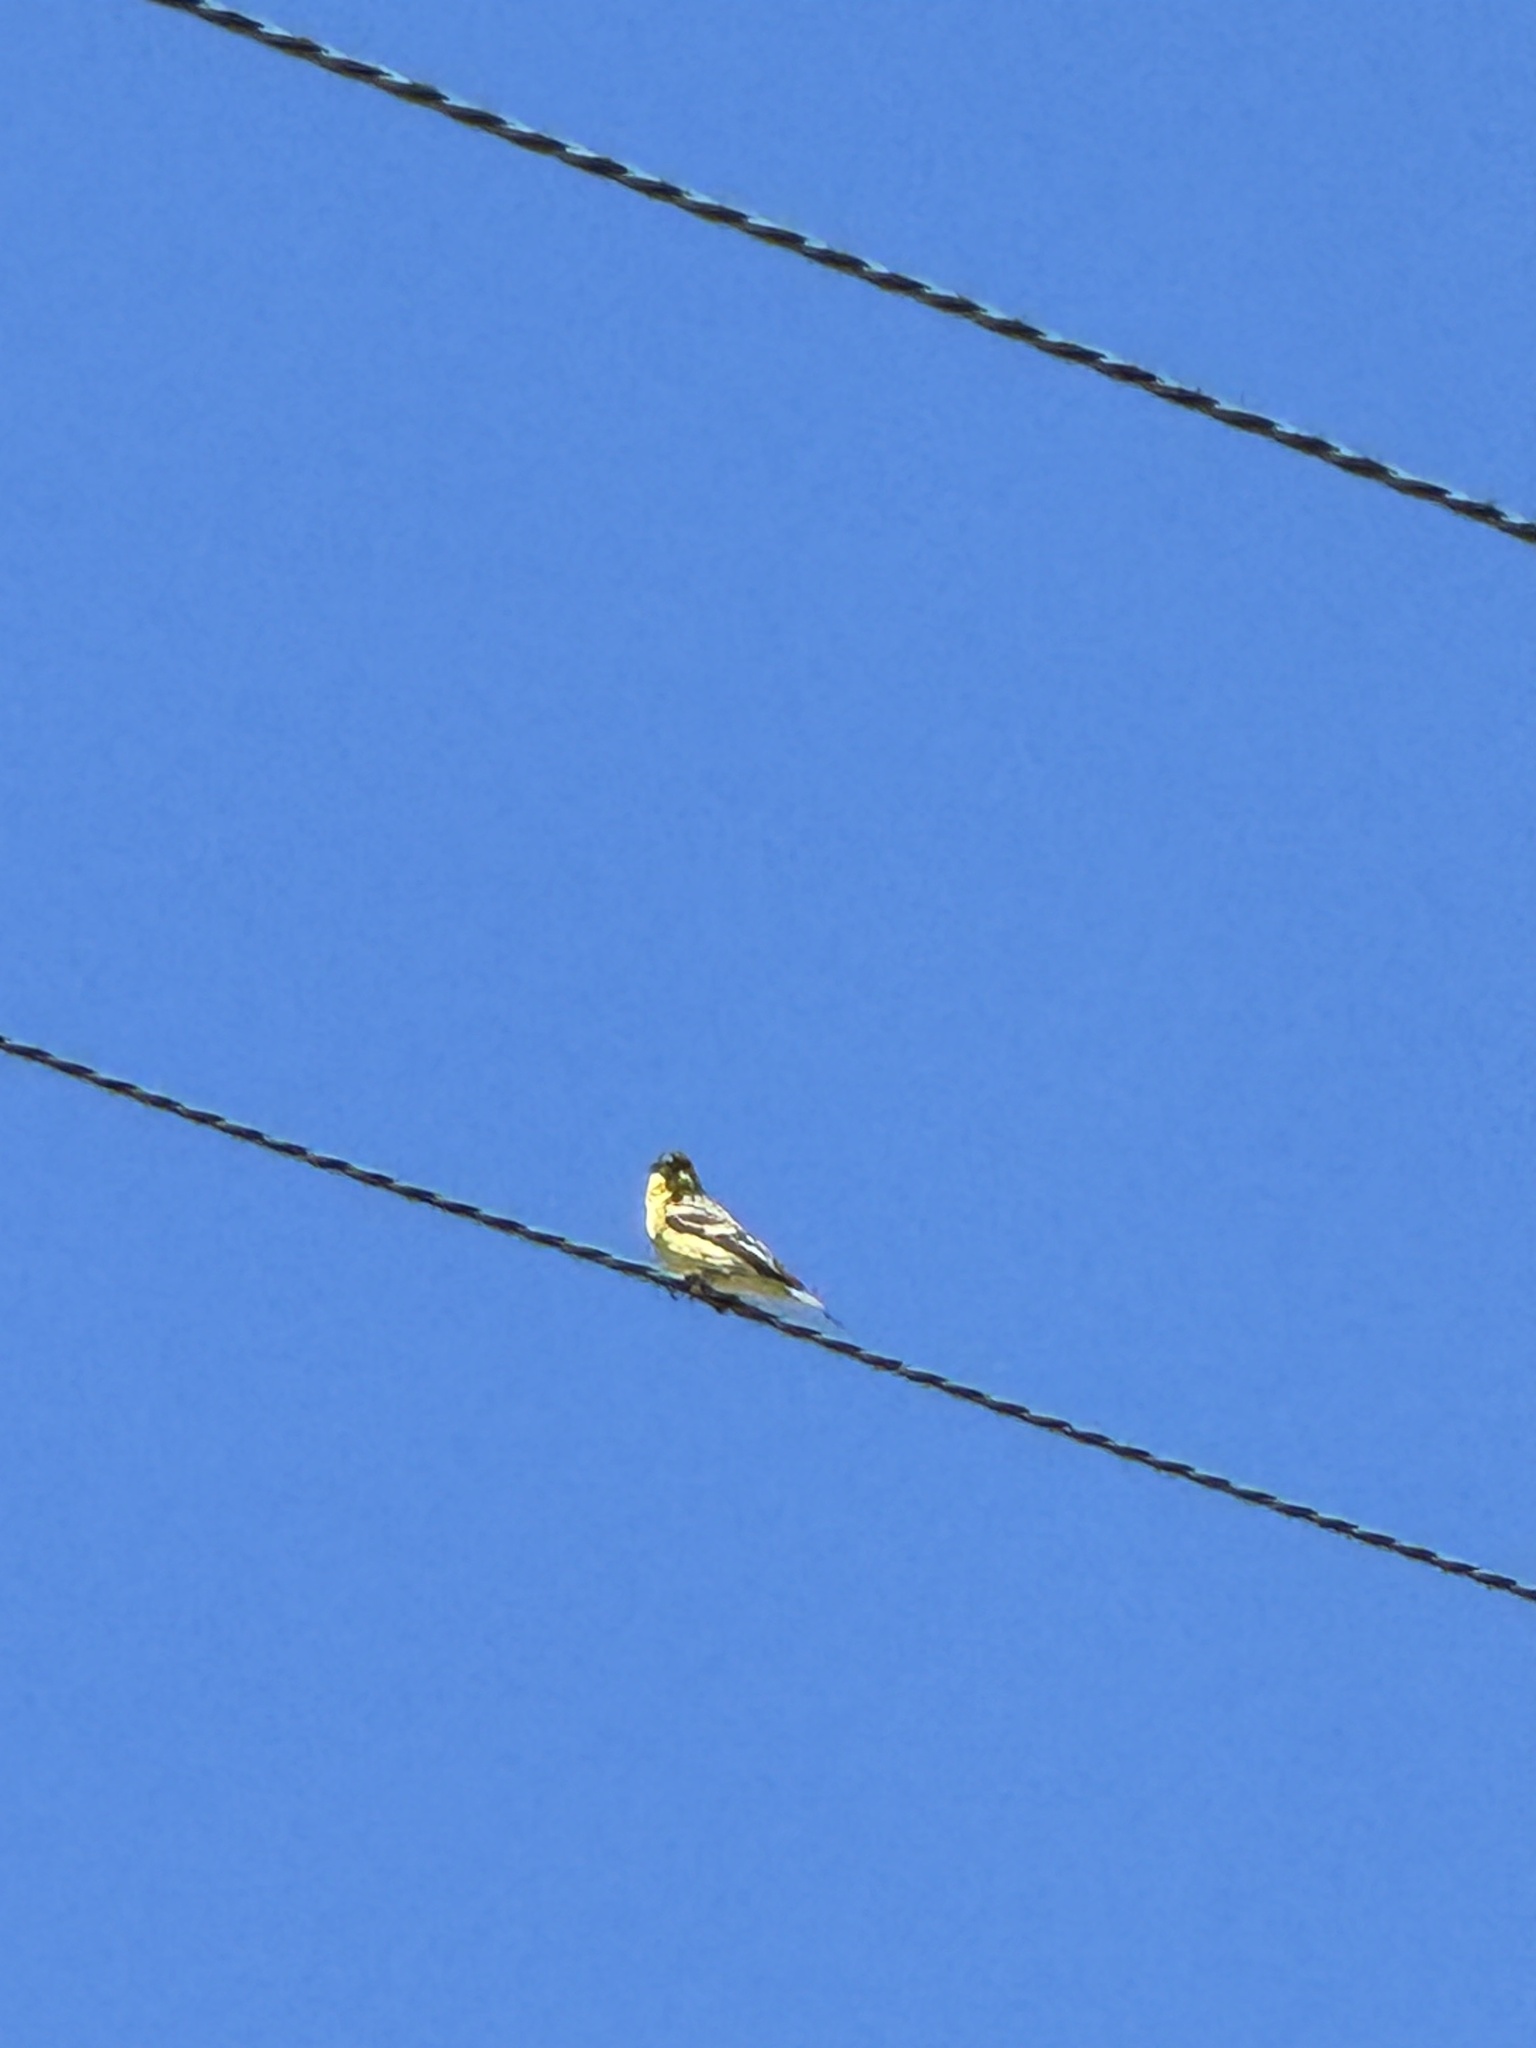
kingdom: Animalia
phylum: Chordata
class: Aves
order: Passeriformes
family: Fringillidae
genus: Spinus
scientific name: Spinus psaltria
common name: Lesser goldfinch
